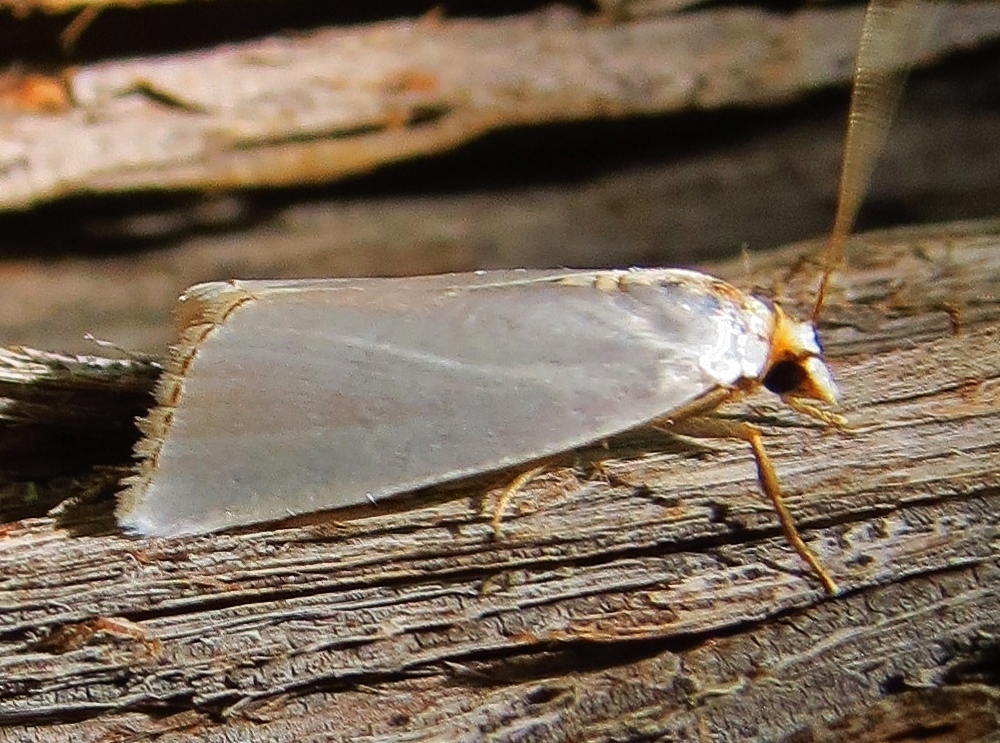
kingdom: Animalia
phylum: Arthropoda
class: Insecta
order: Lepidoptera
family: Crambidae
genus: Argyria
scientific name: Argyria nivalis
